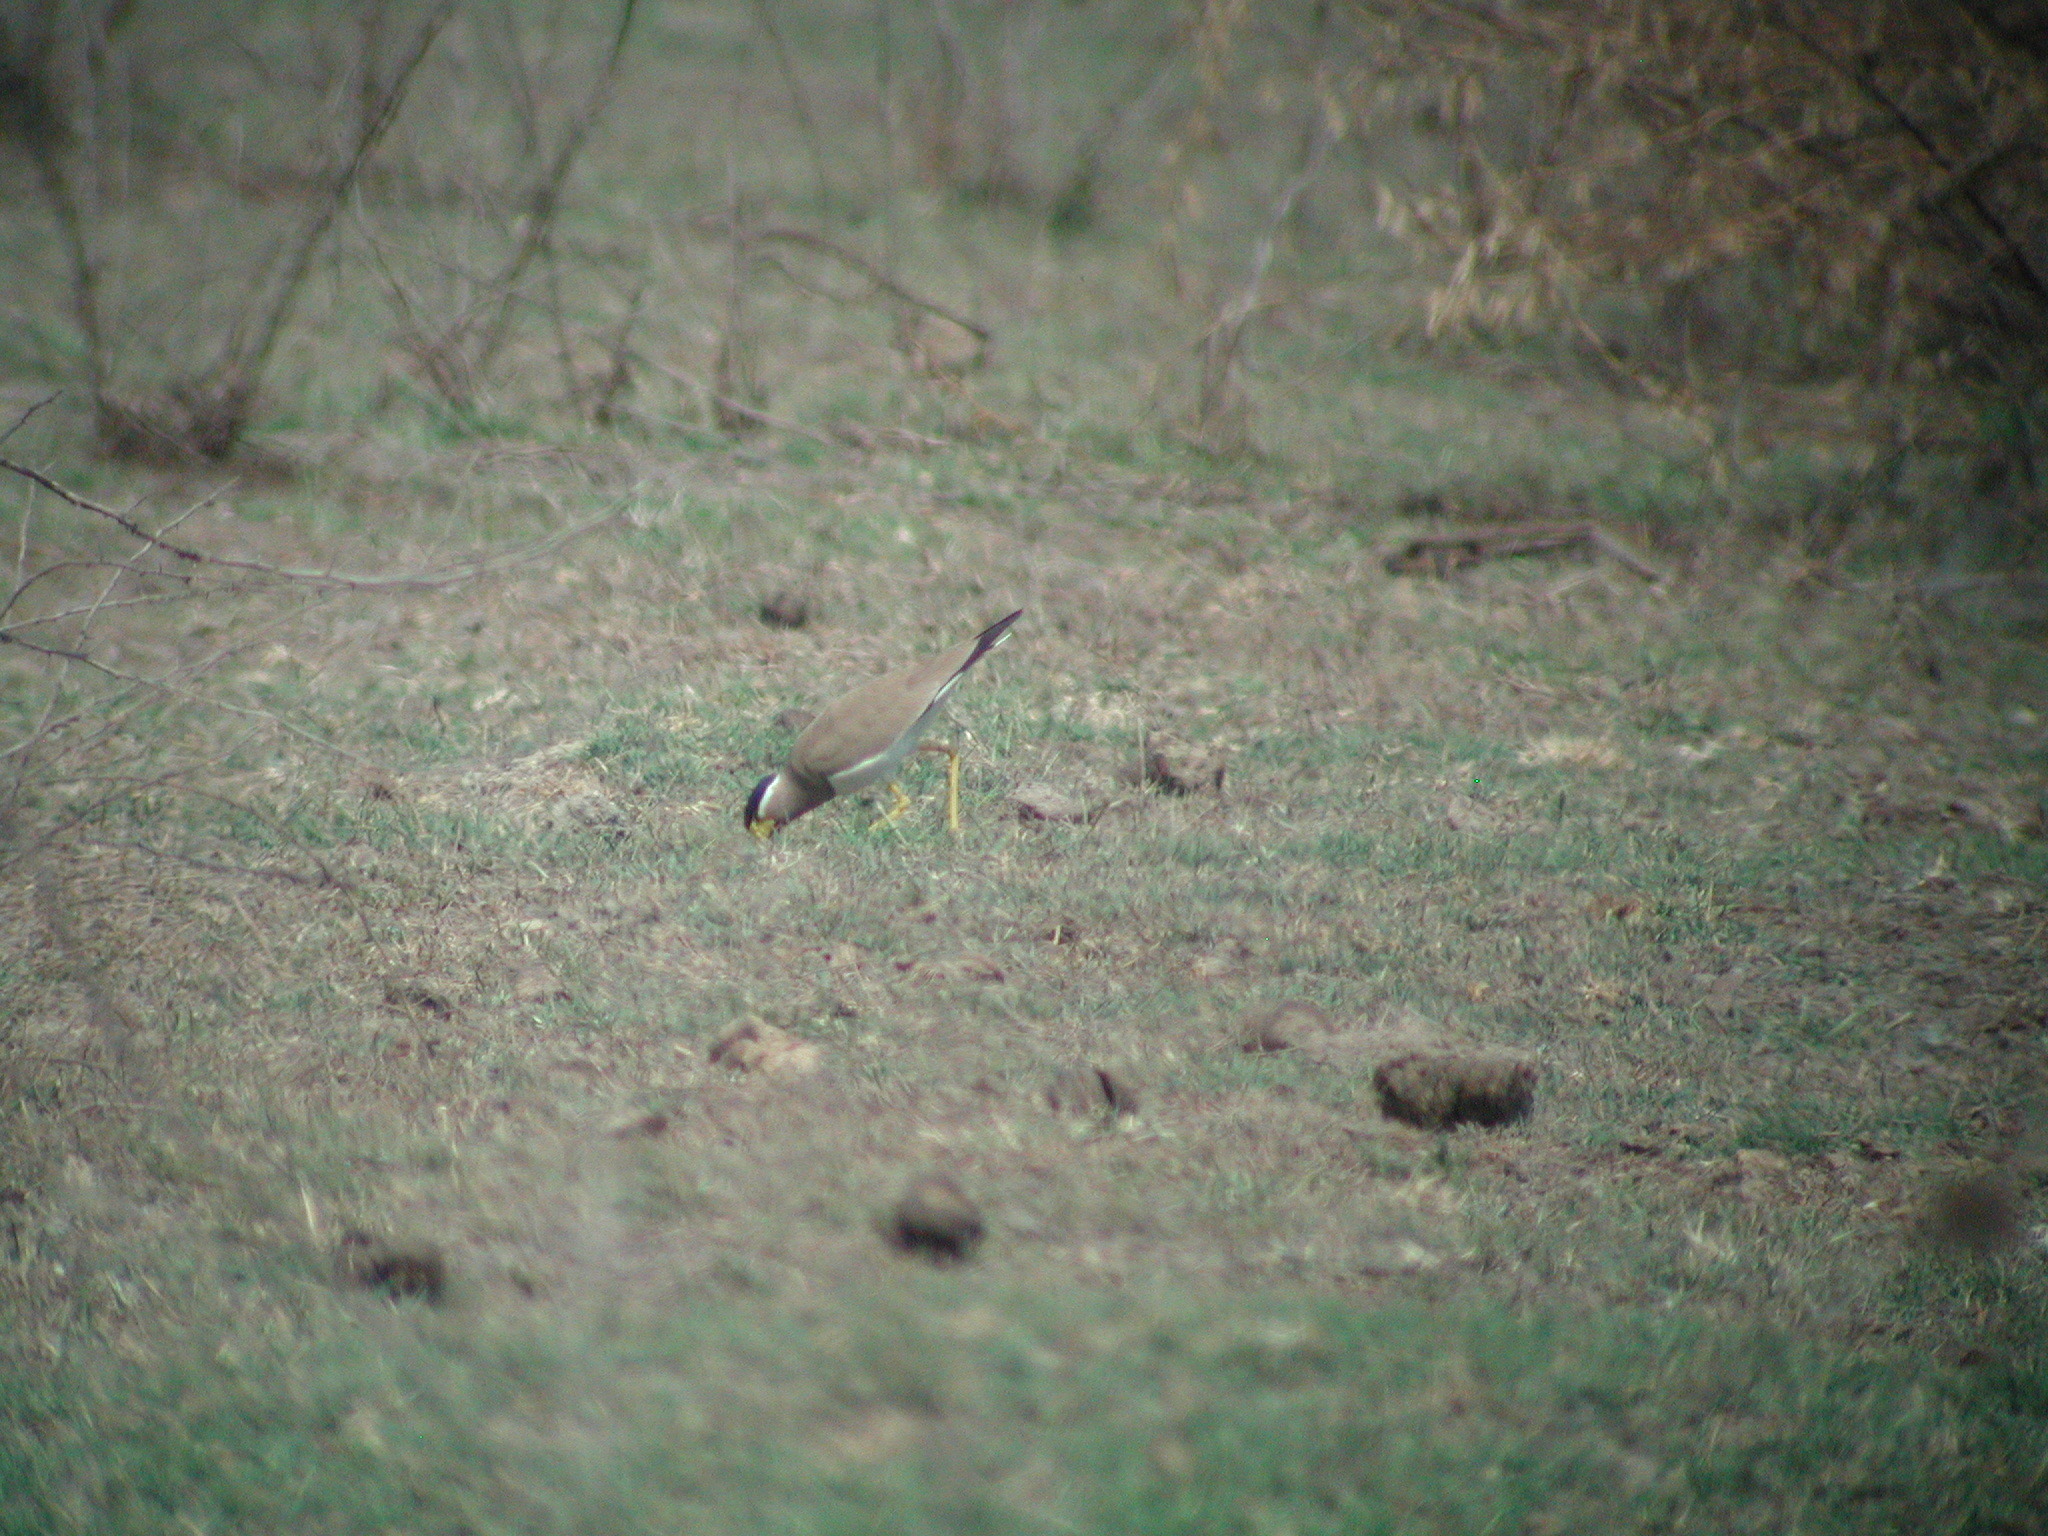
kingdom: Animalia
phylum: Chordata
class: Aves
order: Charadriiformes
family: Charadriidae
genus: Vanellus
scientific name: Vanellus malabaricus
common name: Yellow-wattled lapwing
